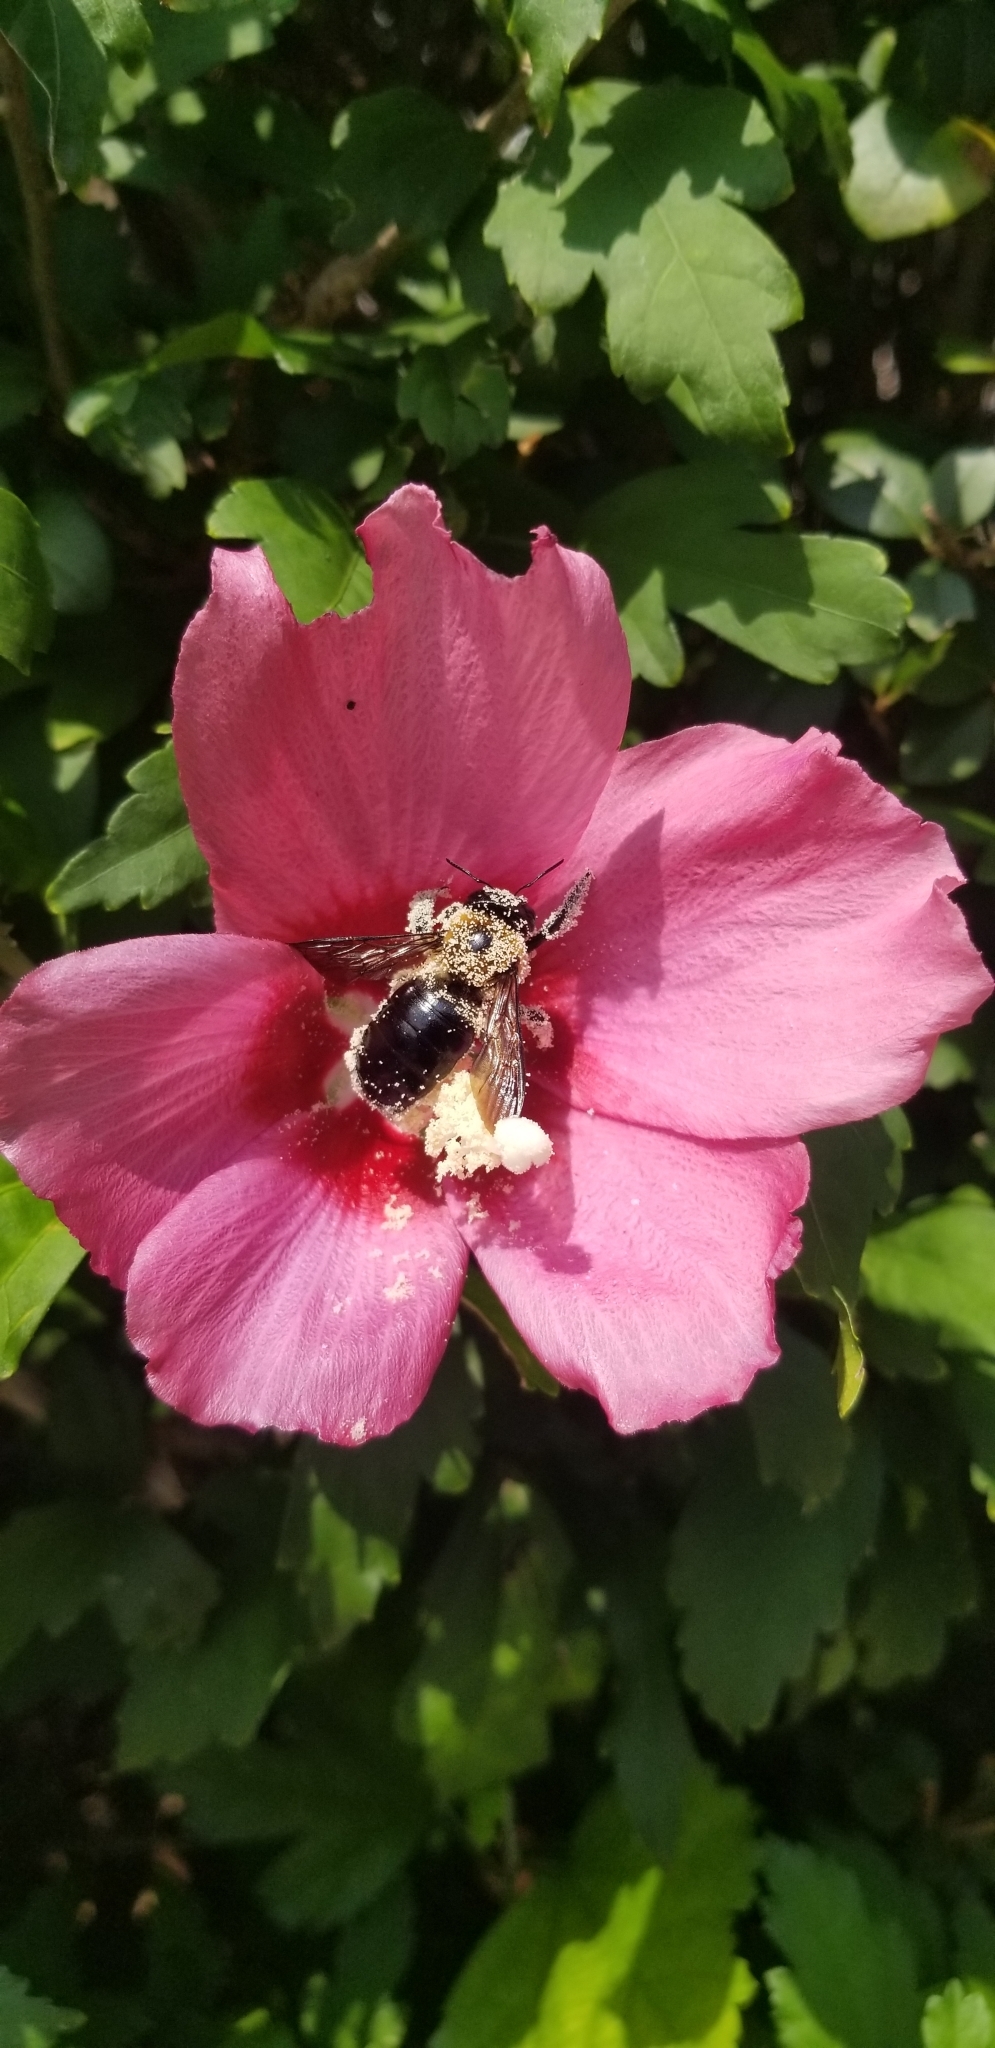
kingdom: Animalia
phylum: Arthropoda
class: Insecta
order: Hymenoptera
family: Apidae
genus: Xylocopa
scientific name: Xylocopa virginica
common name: Carpenter bee
